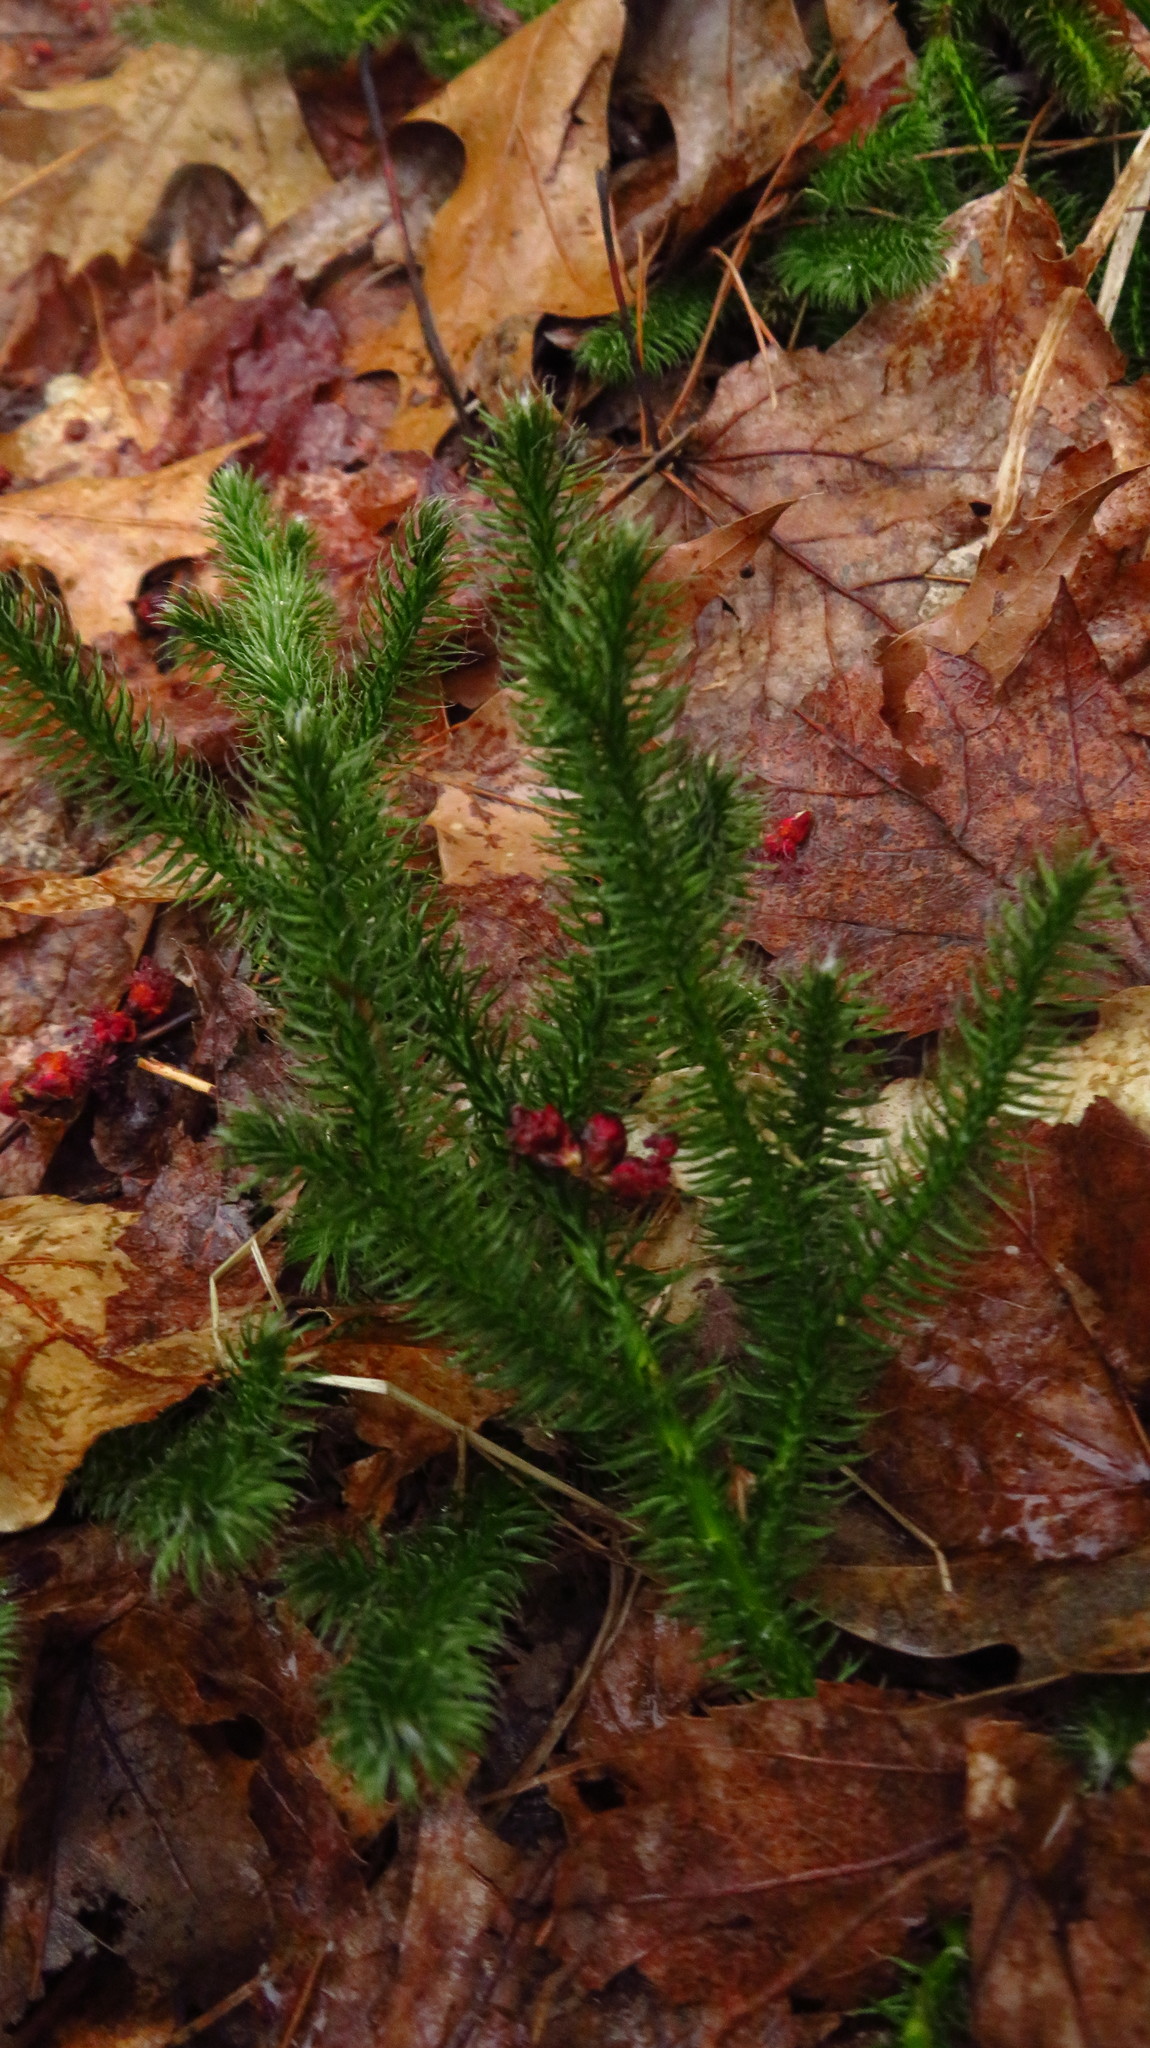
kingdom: Plantae
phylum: Tracheophyta
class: Lycopodiopsida
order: Lycopodiales
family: Lycopodiaceae
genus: Lycopodium
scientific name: Lycopodium clavatum
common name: Stag's-horn clubmoss
